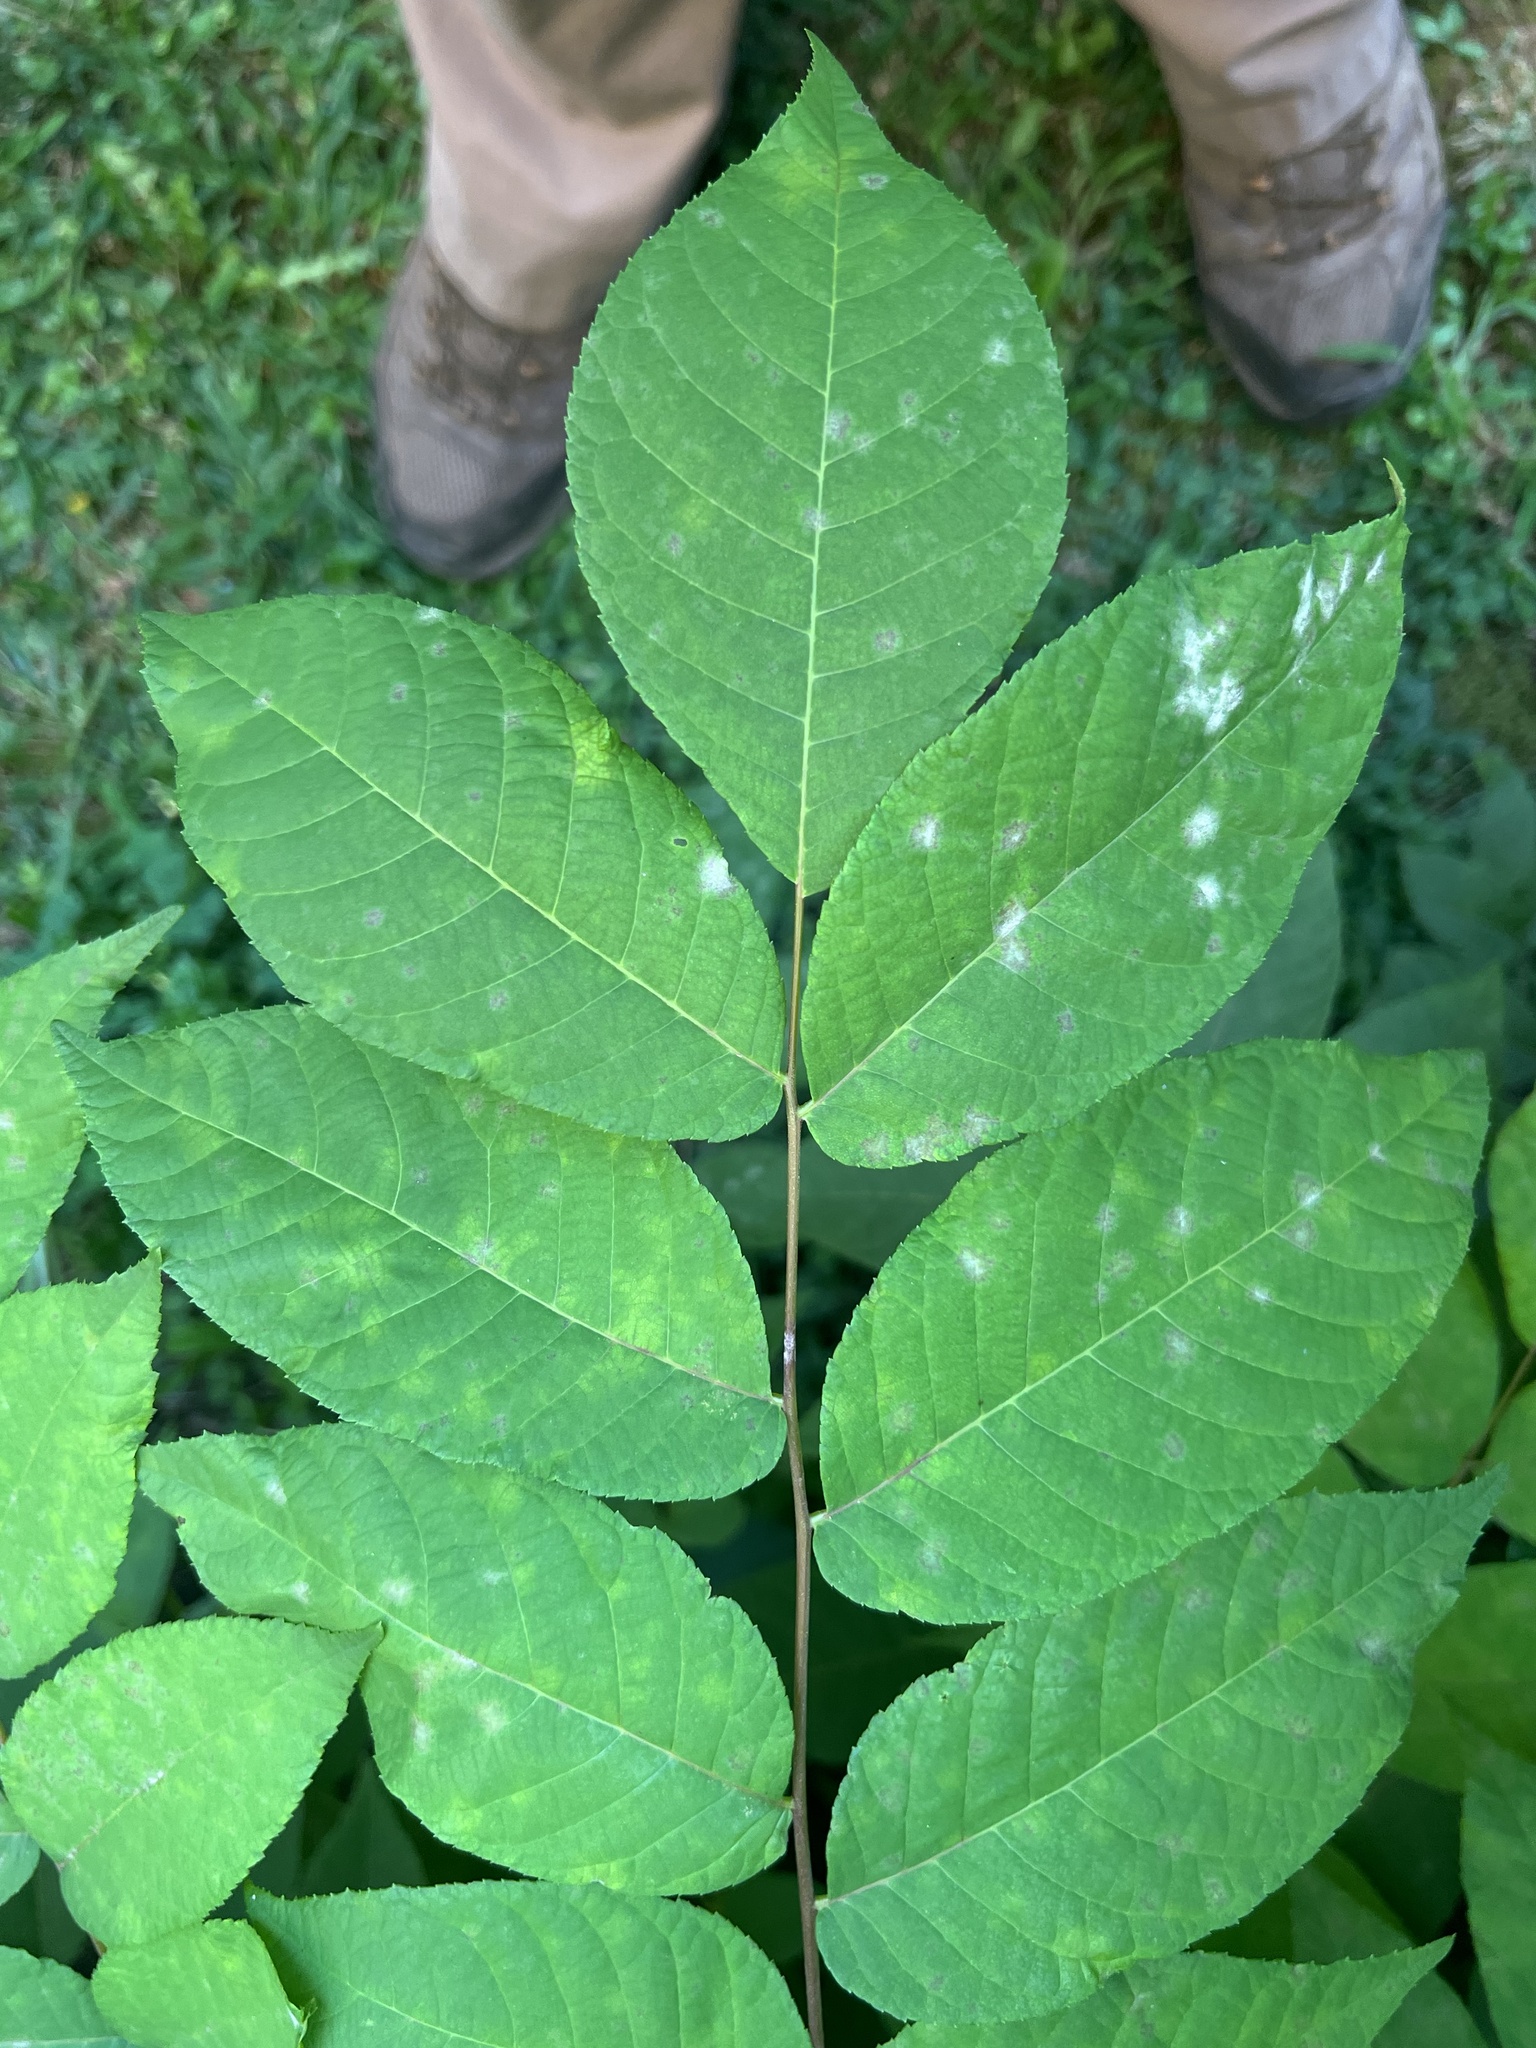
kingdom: Fungi
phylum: Ascomycota
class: Leotiomycetes
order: Helotiales
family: Erysiphaceae
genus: Erysiphe
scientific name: Erysiphe juglandis-nigrae
